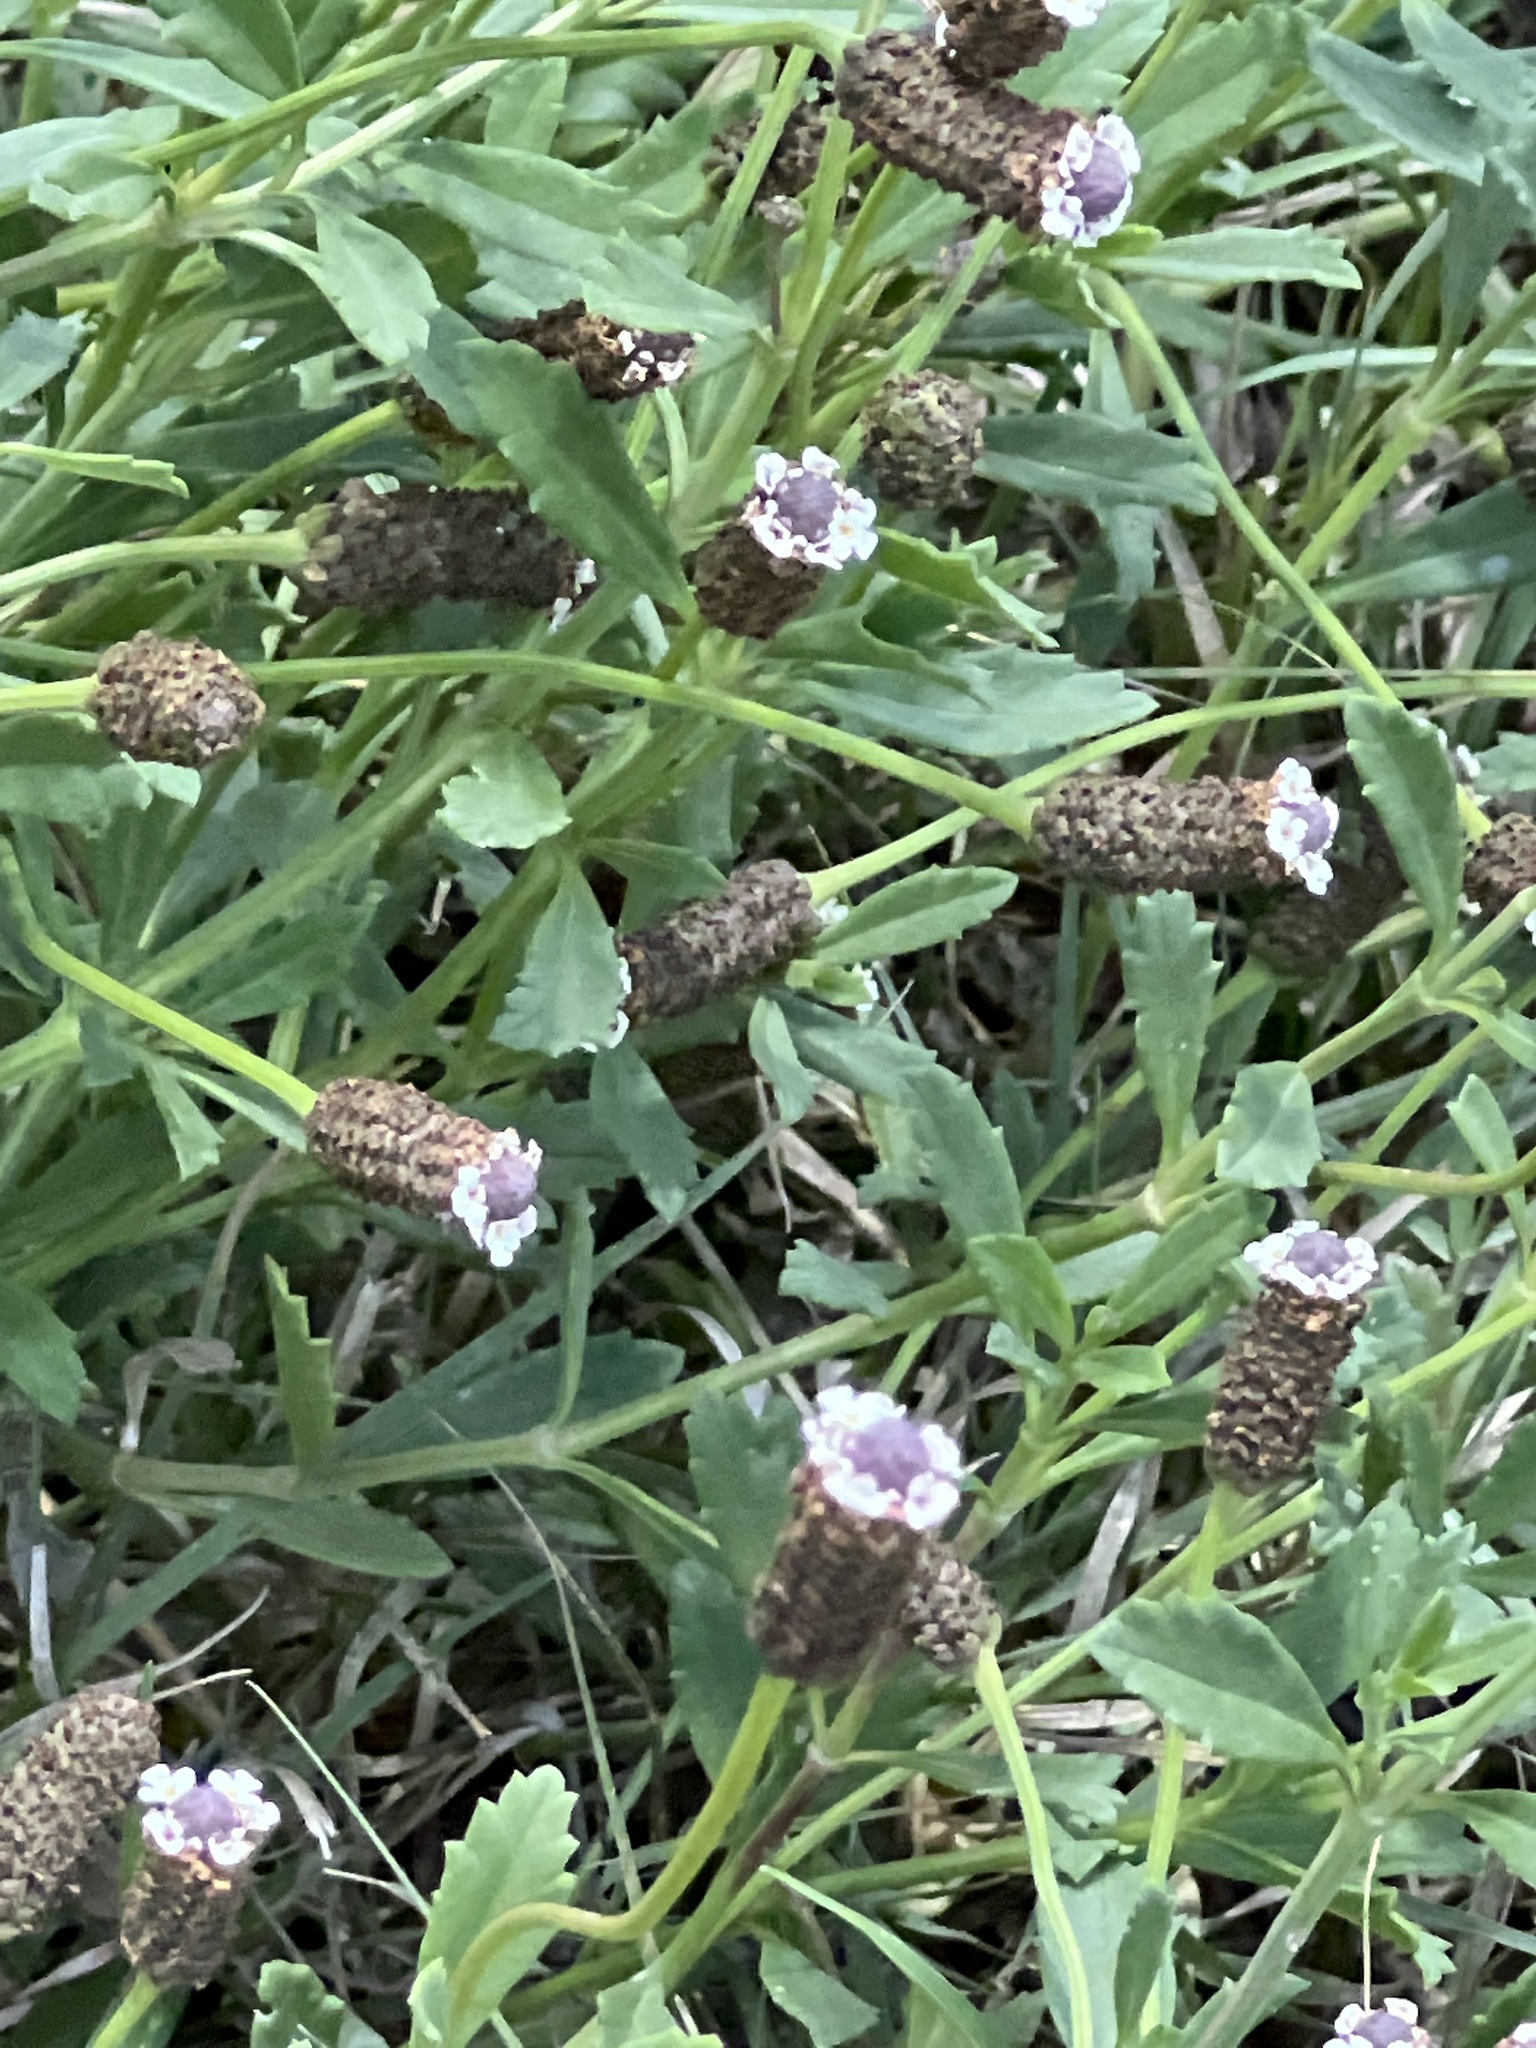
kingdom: Plantae
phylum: Tracheophyta
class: Magnoliopsida
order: Lamiales
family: Verbenaceae
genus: Phyla
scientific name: Phyla nodiflora
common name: Frogfruit
